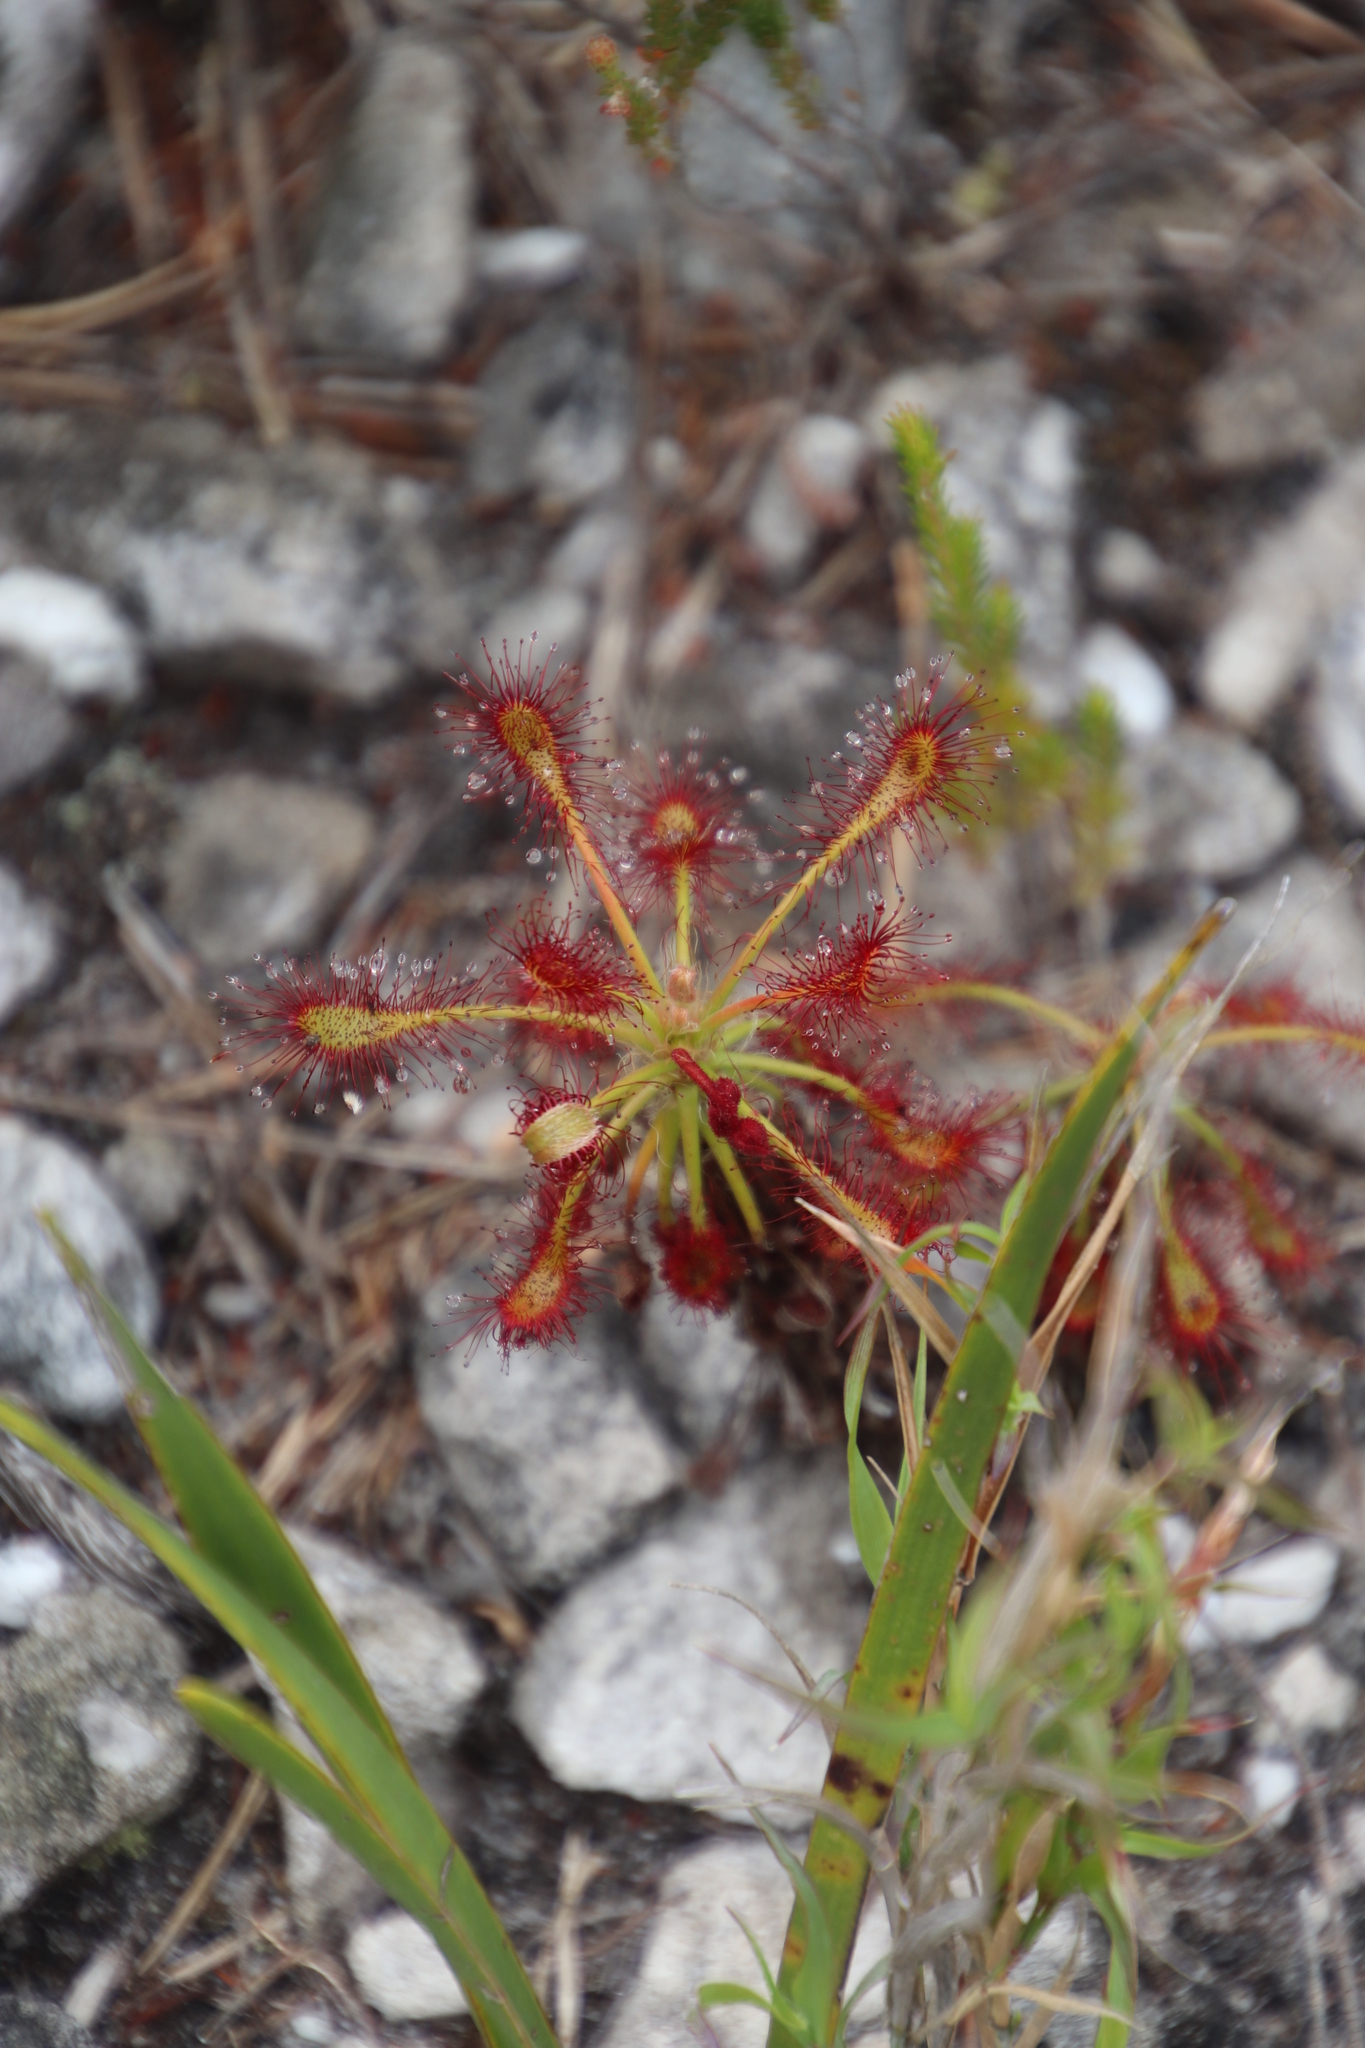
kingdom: Plantae
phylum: Tracheophyta
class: Magnoliopsida
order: Caryophyllales
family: Droseraceae
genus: Drosera
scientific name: Drosera glabripes
